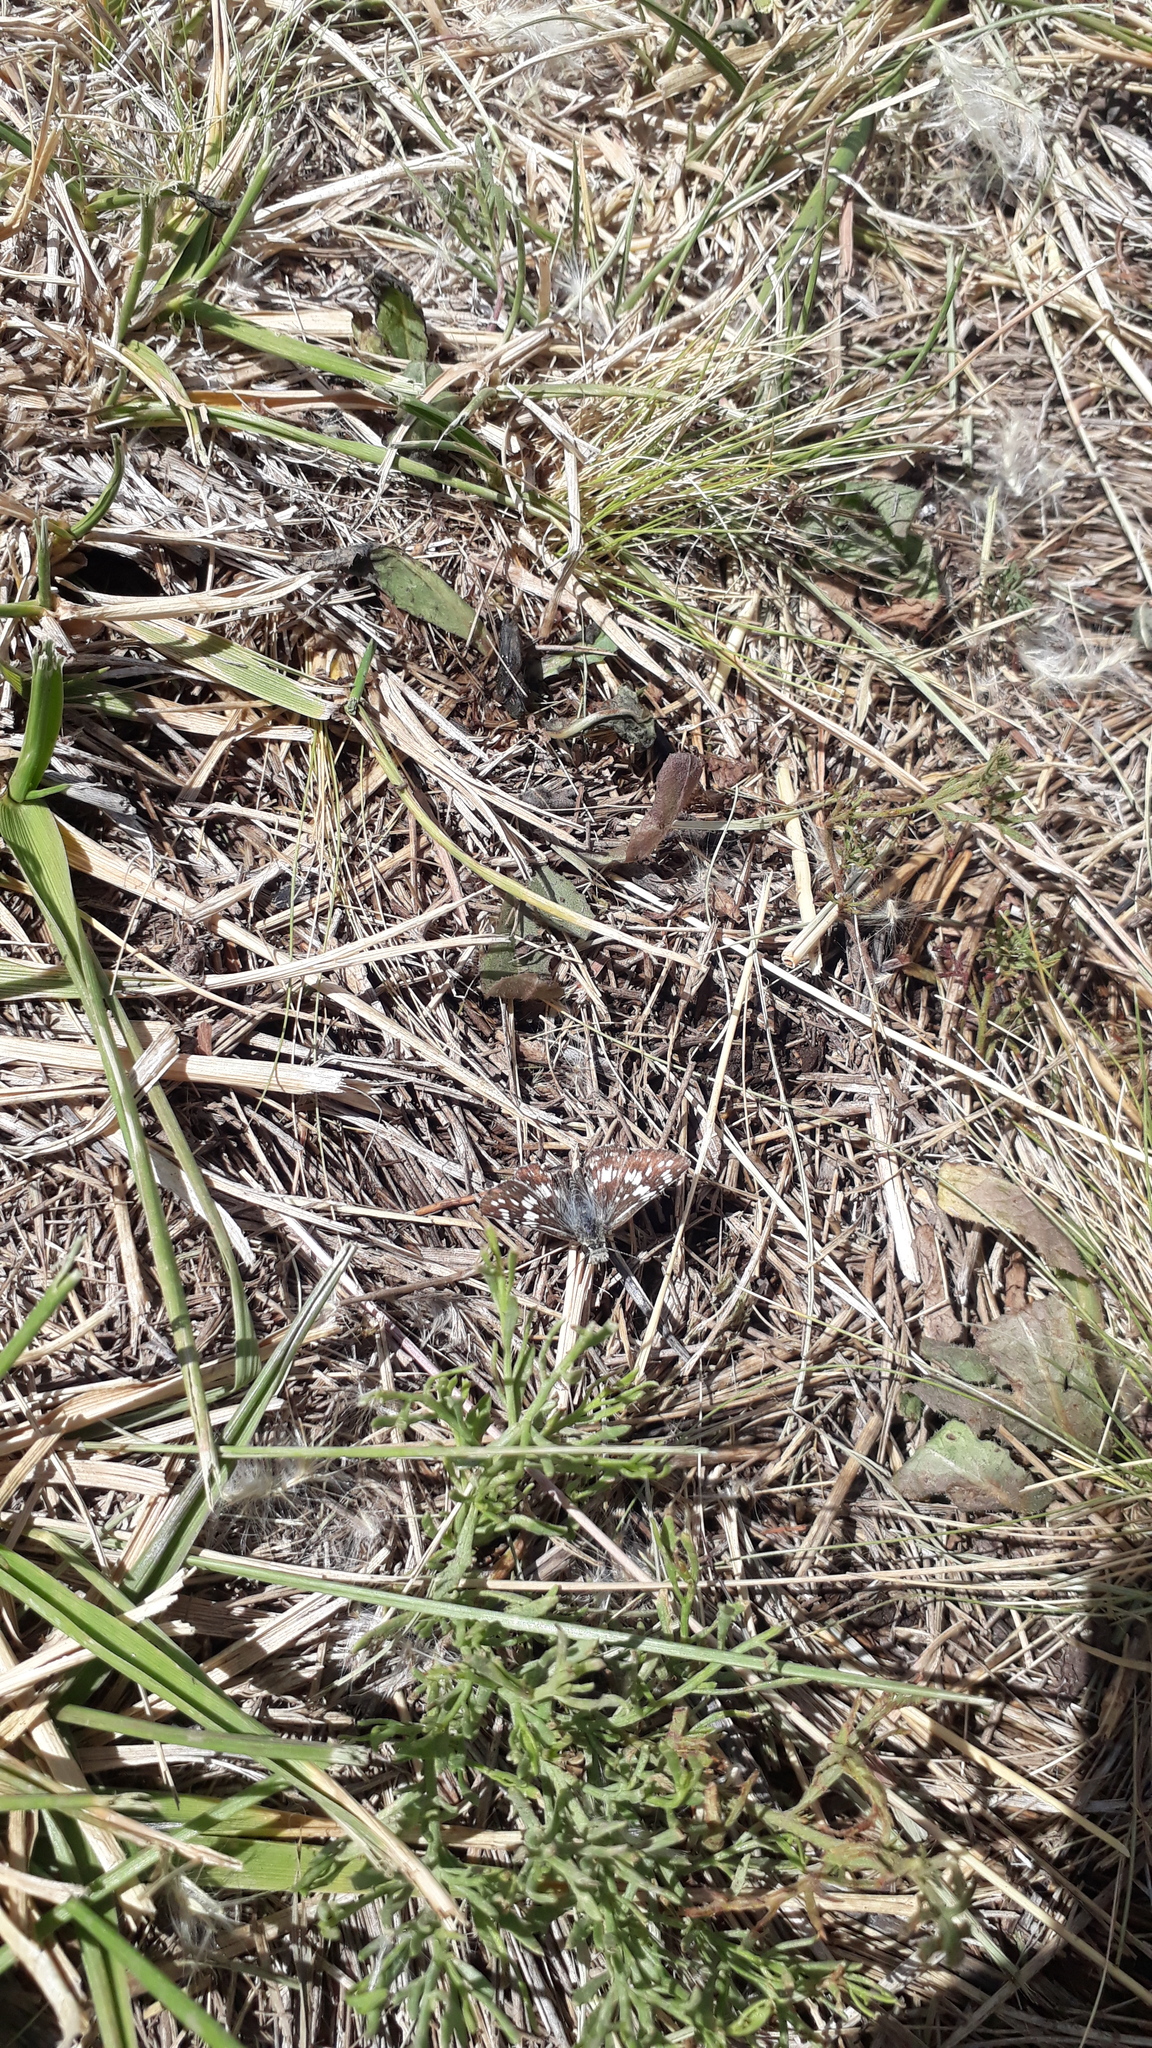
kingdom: Animalia
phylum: Arthropoda
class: Insecta
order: Lepidoptera
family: Hesperiidae
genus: Burnsius
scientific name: Burnsius orcynoides
